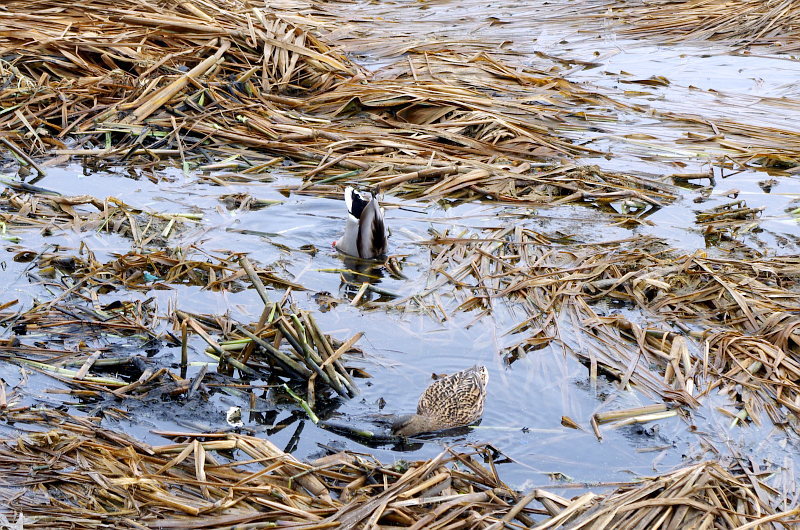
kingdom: Animalia
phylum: Chordata
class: Aves
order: Anseriformes
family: Anatidae
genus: Anas
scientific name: Anas platyrhynchos
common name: Mallard
